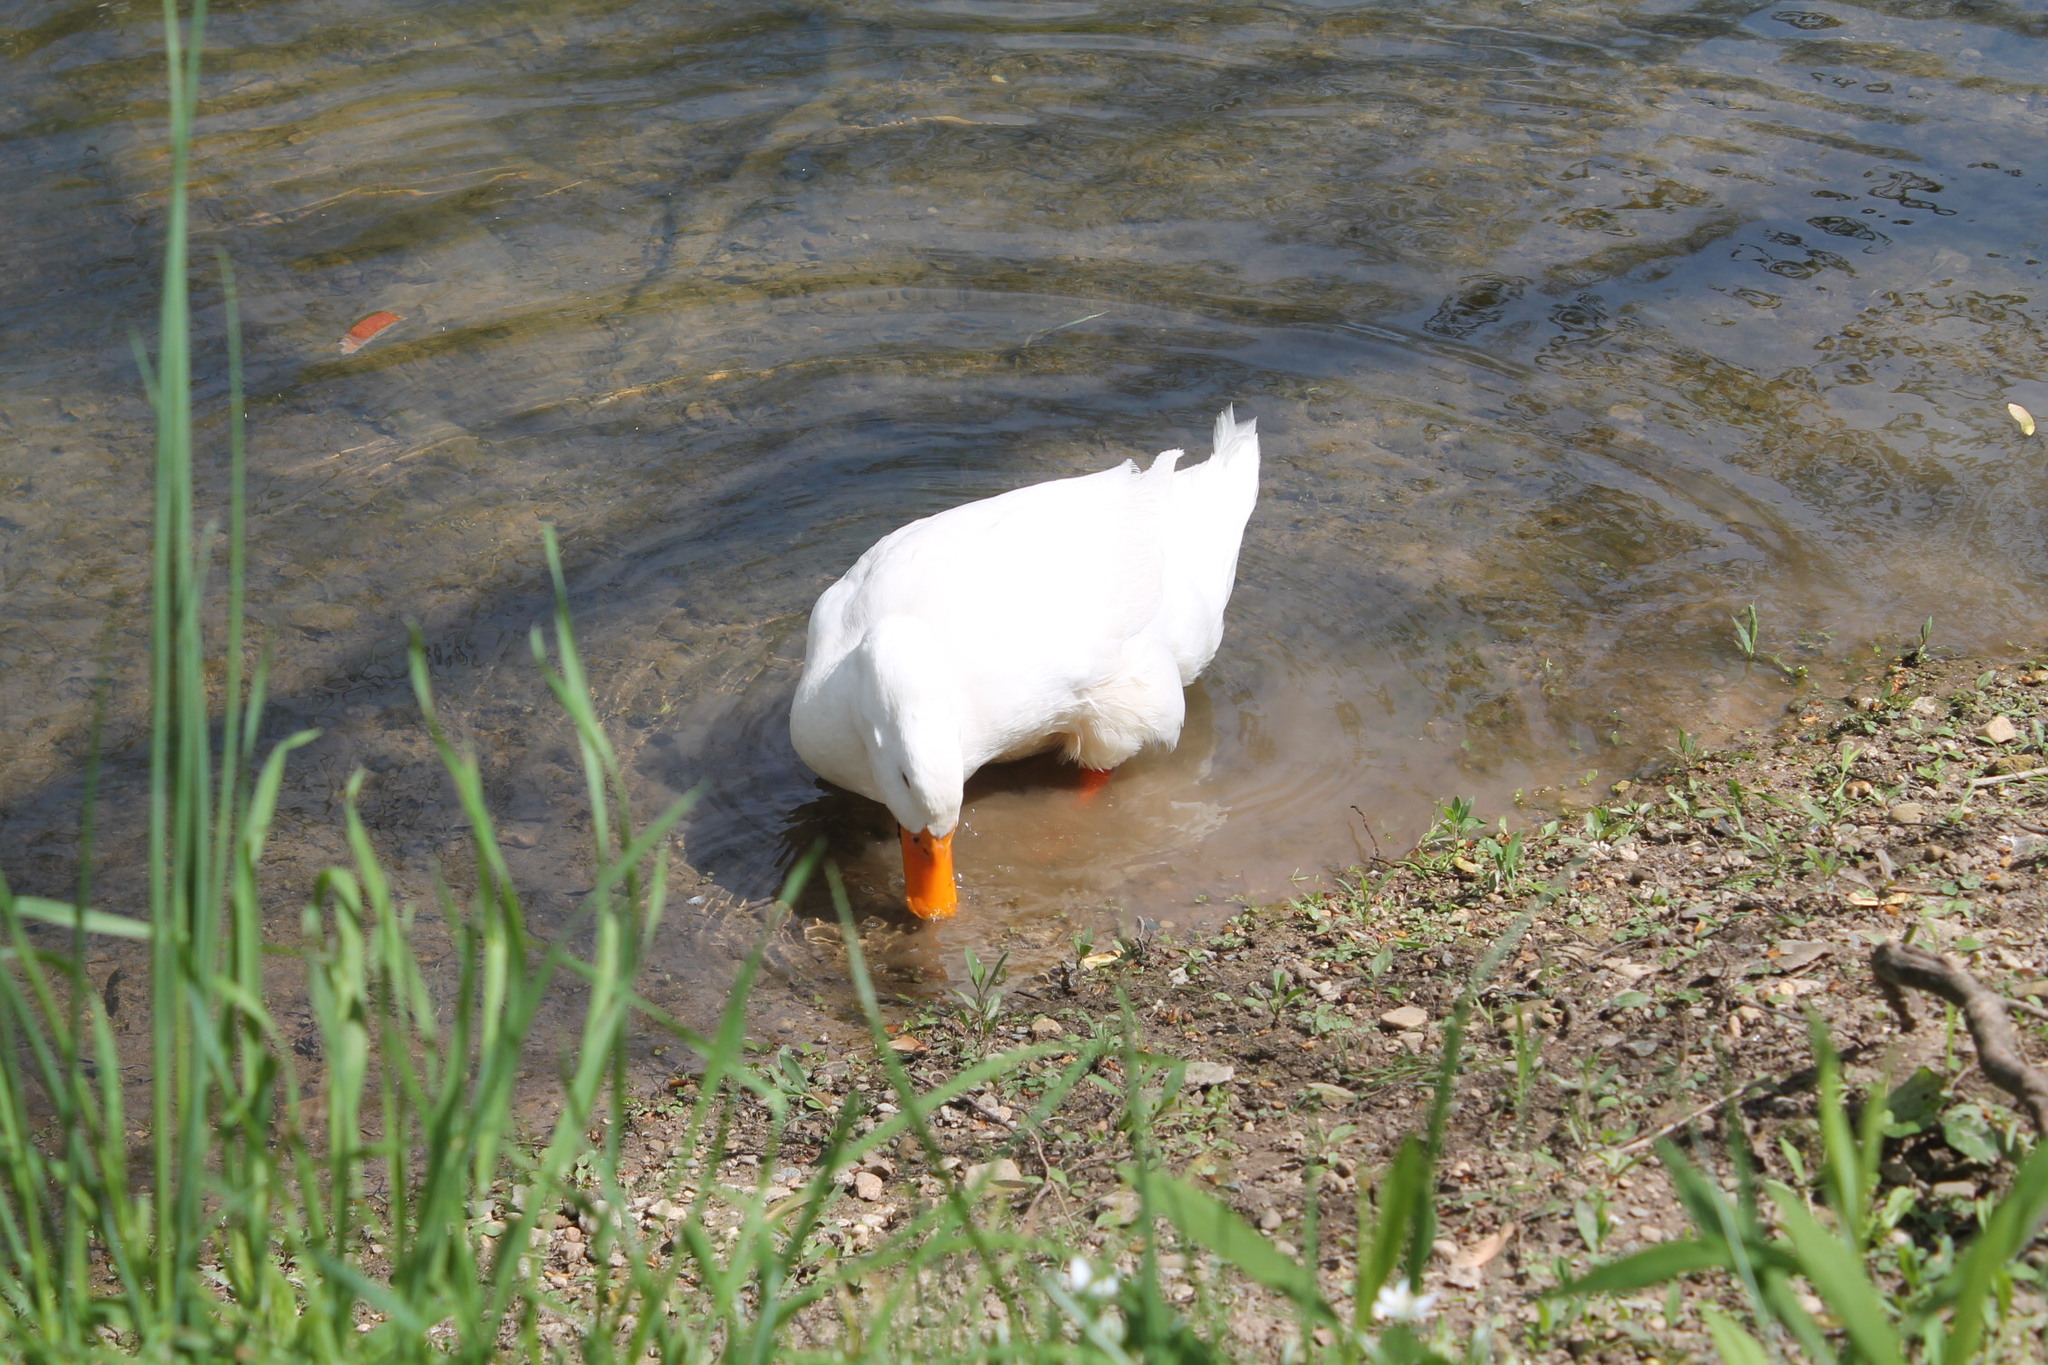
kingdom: Animalia
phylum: Chordata
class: Aves
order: Anseriformes
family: Anatidae
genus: Anas
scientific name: Anas platyrhynchos
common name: Mallard
